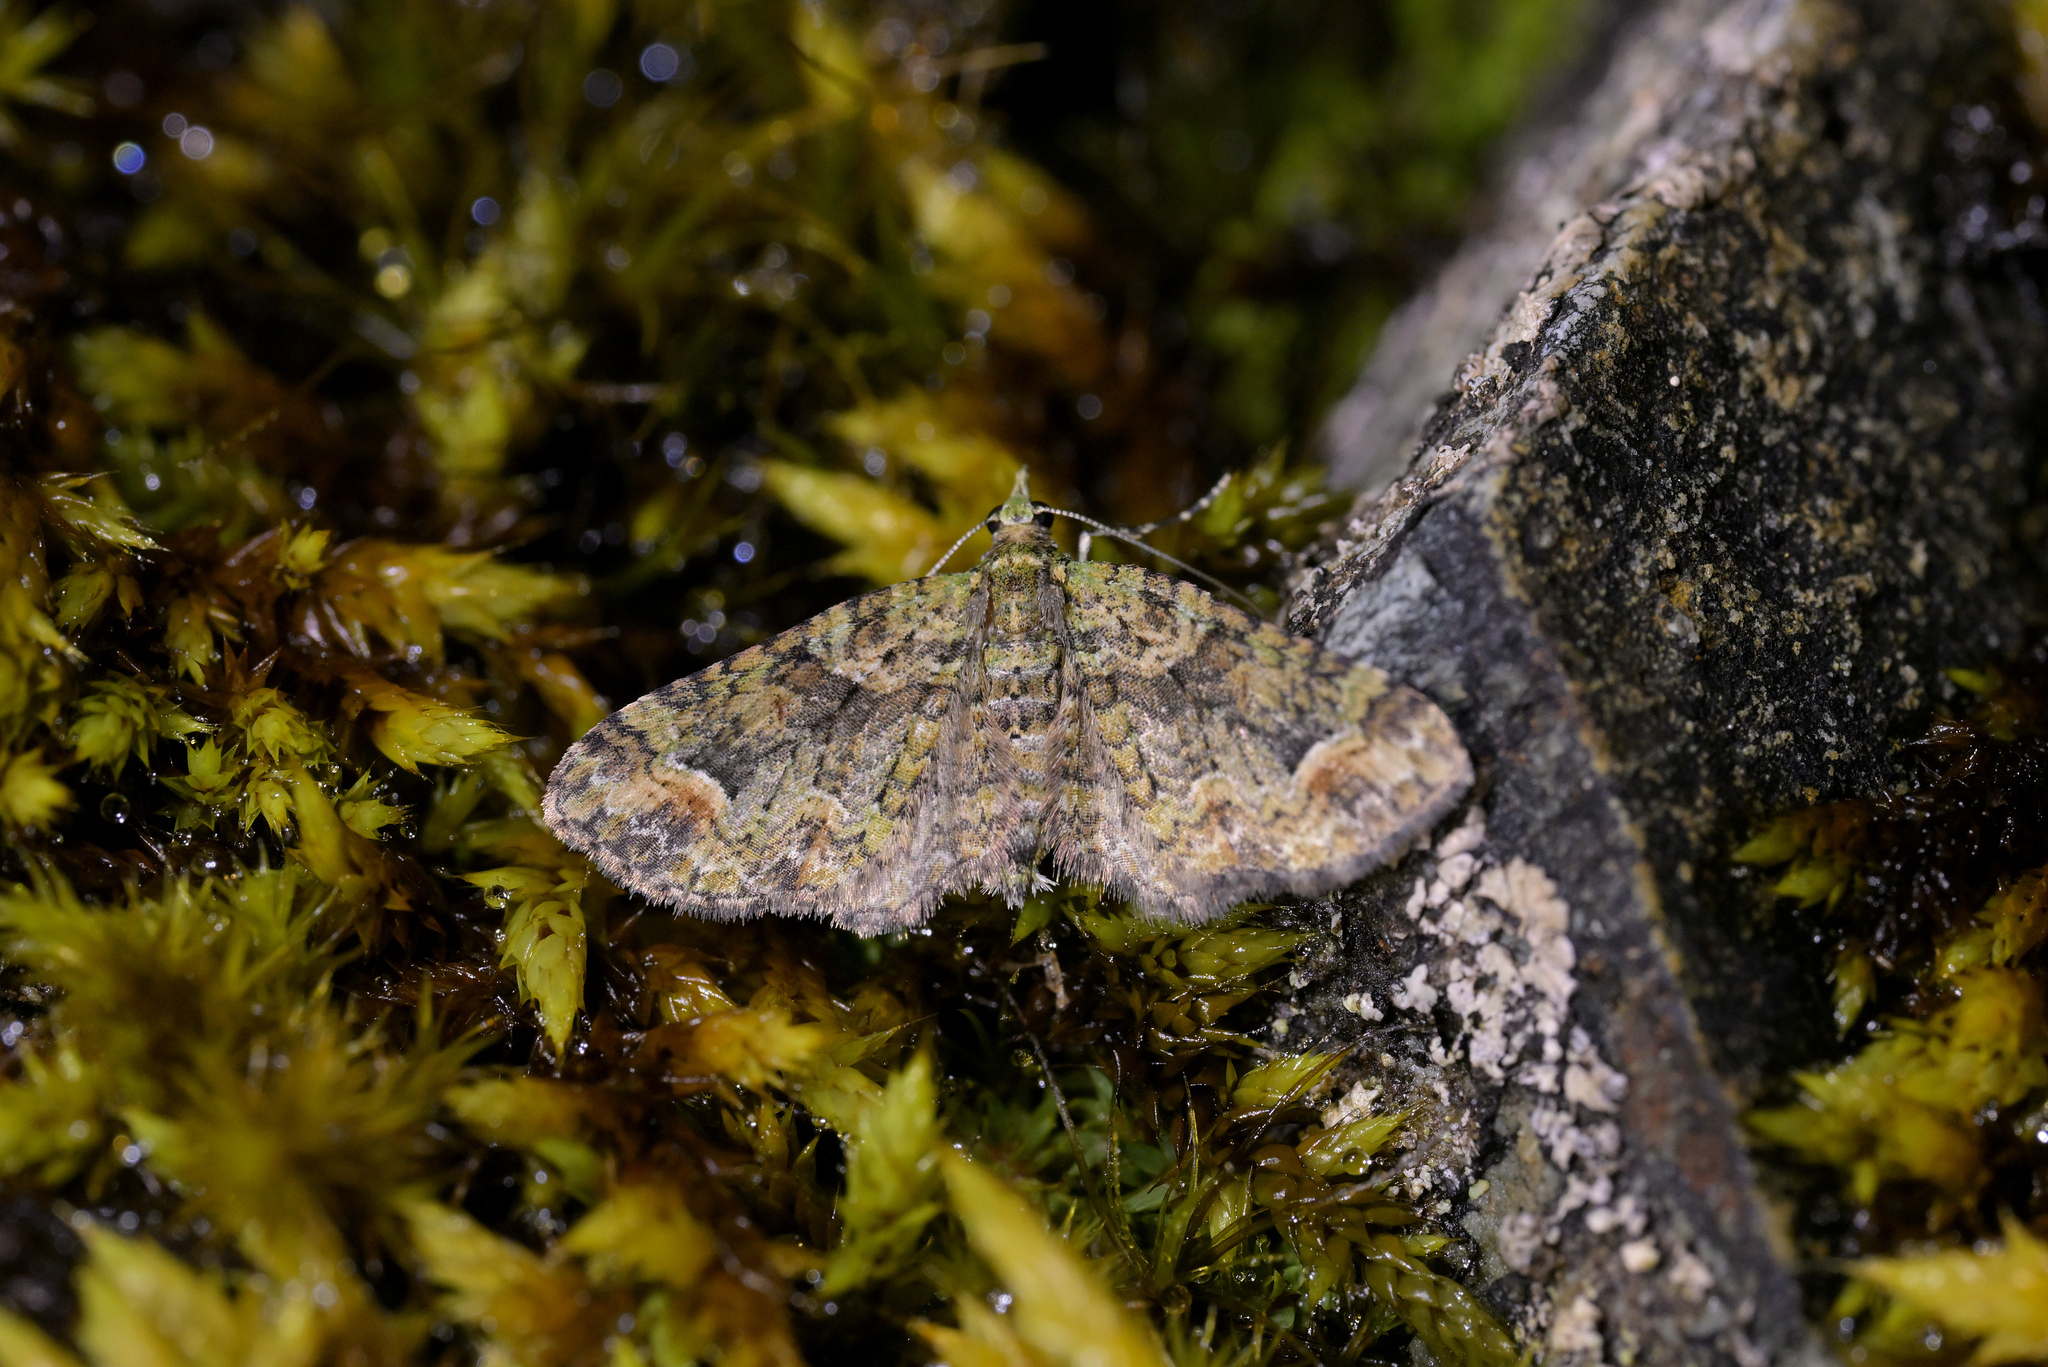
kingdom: Animalia
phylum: Arthropoda
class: Insecta
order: Lepidoptera
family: Geometridae
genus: Idaea
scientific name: Idaea mutanda
